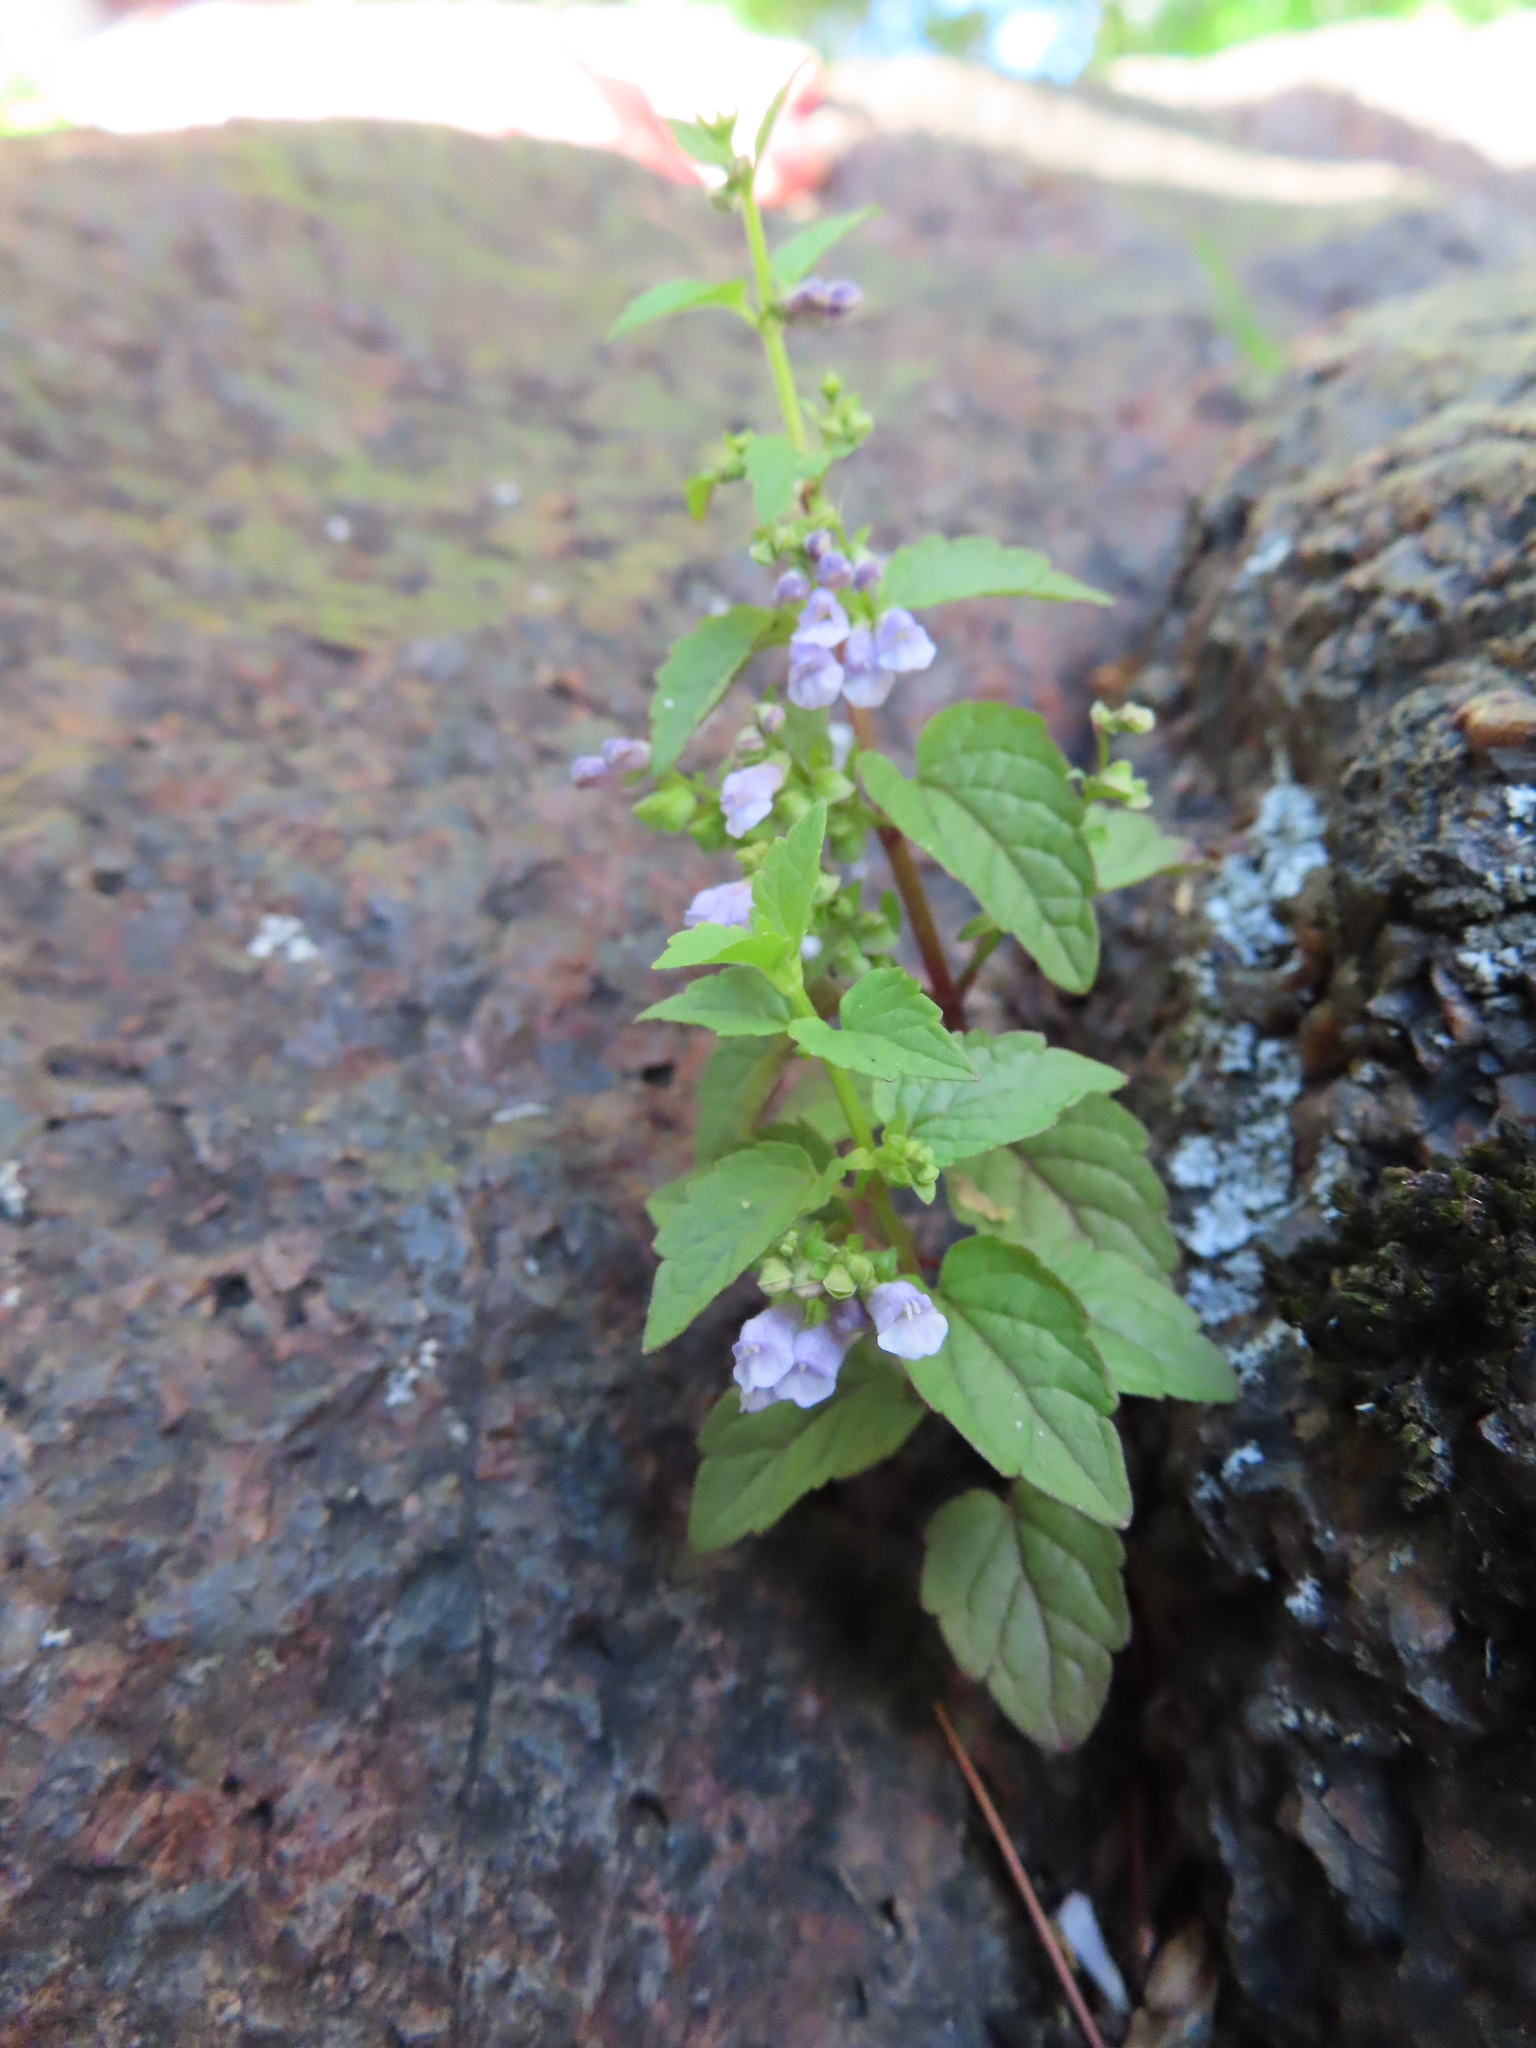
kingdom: Plantae
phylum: Tracheophyta
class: Magnoliopsida
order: Lamiales
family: Lamiaceae
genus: Scutellaria
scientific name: Scutellaria lateriflora
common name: Blue skullcap
